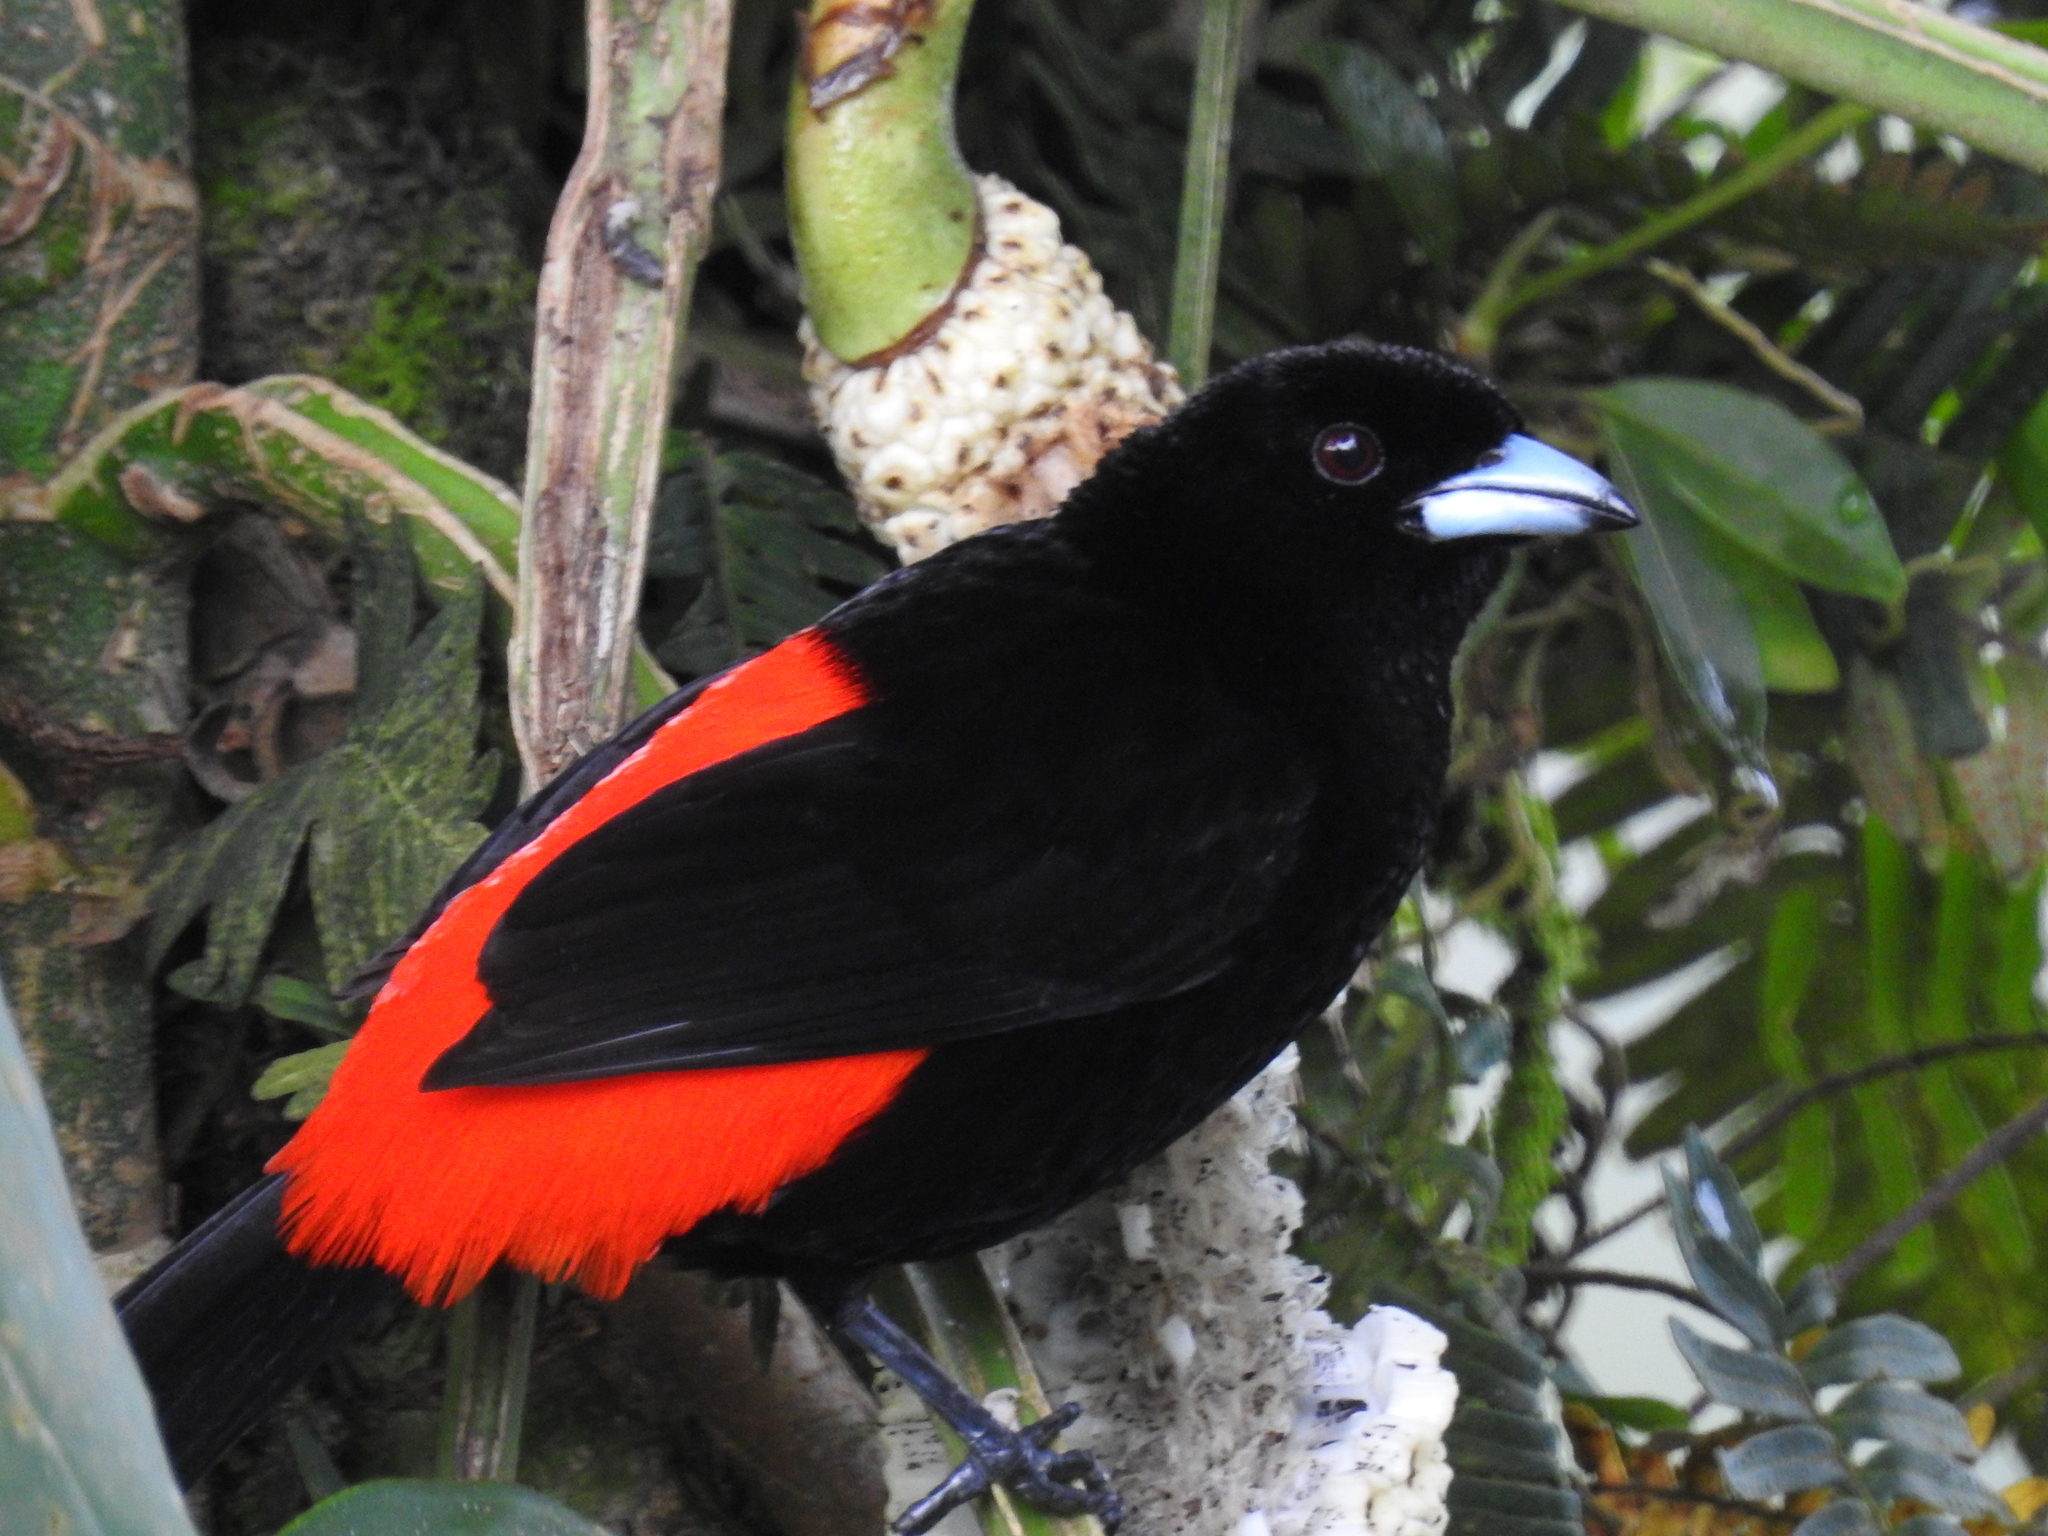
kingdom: Animalia
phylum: Chordata
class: Aves
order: Passeriformes
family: Thraupidae
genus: Ramphocelus
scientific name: Ramphocelus passerinii
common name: Passerini's tanager
